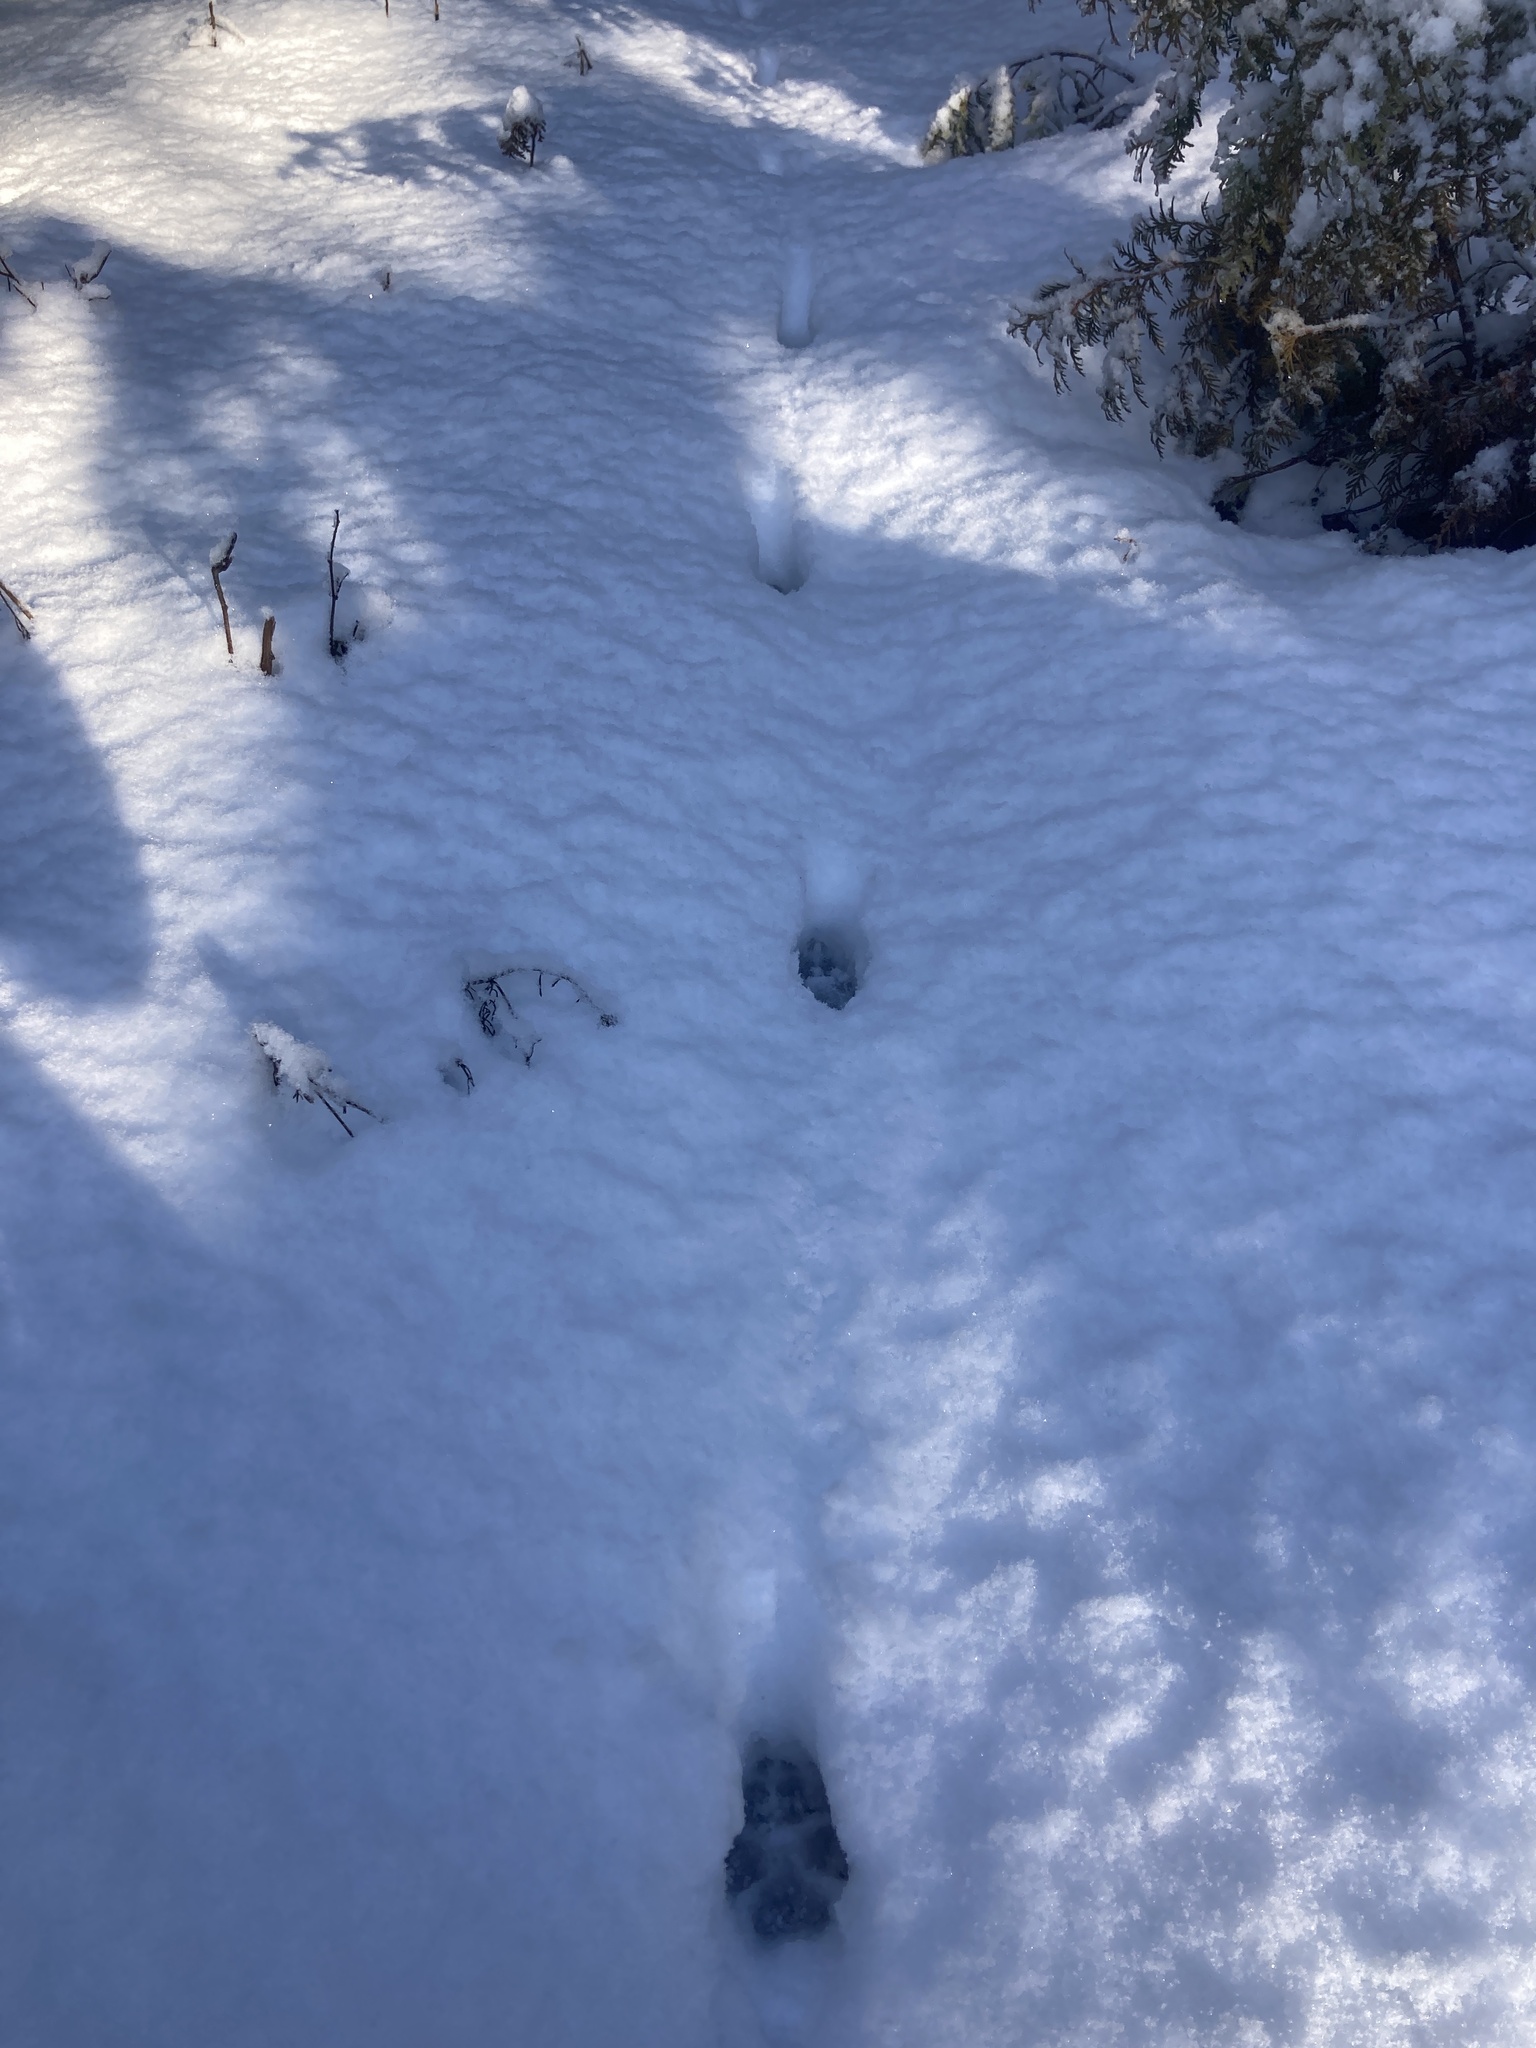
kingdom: Animalia
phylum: Chordata
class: Mammalia
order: Carnivora
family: Canidae
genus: Canis
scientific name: Canis latrans
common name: Coyote
